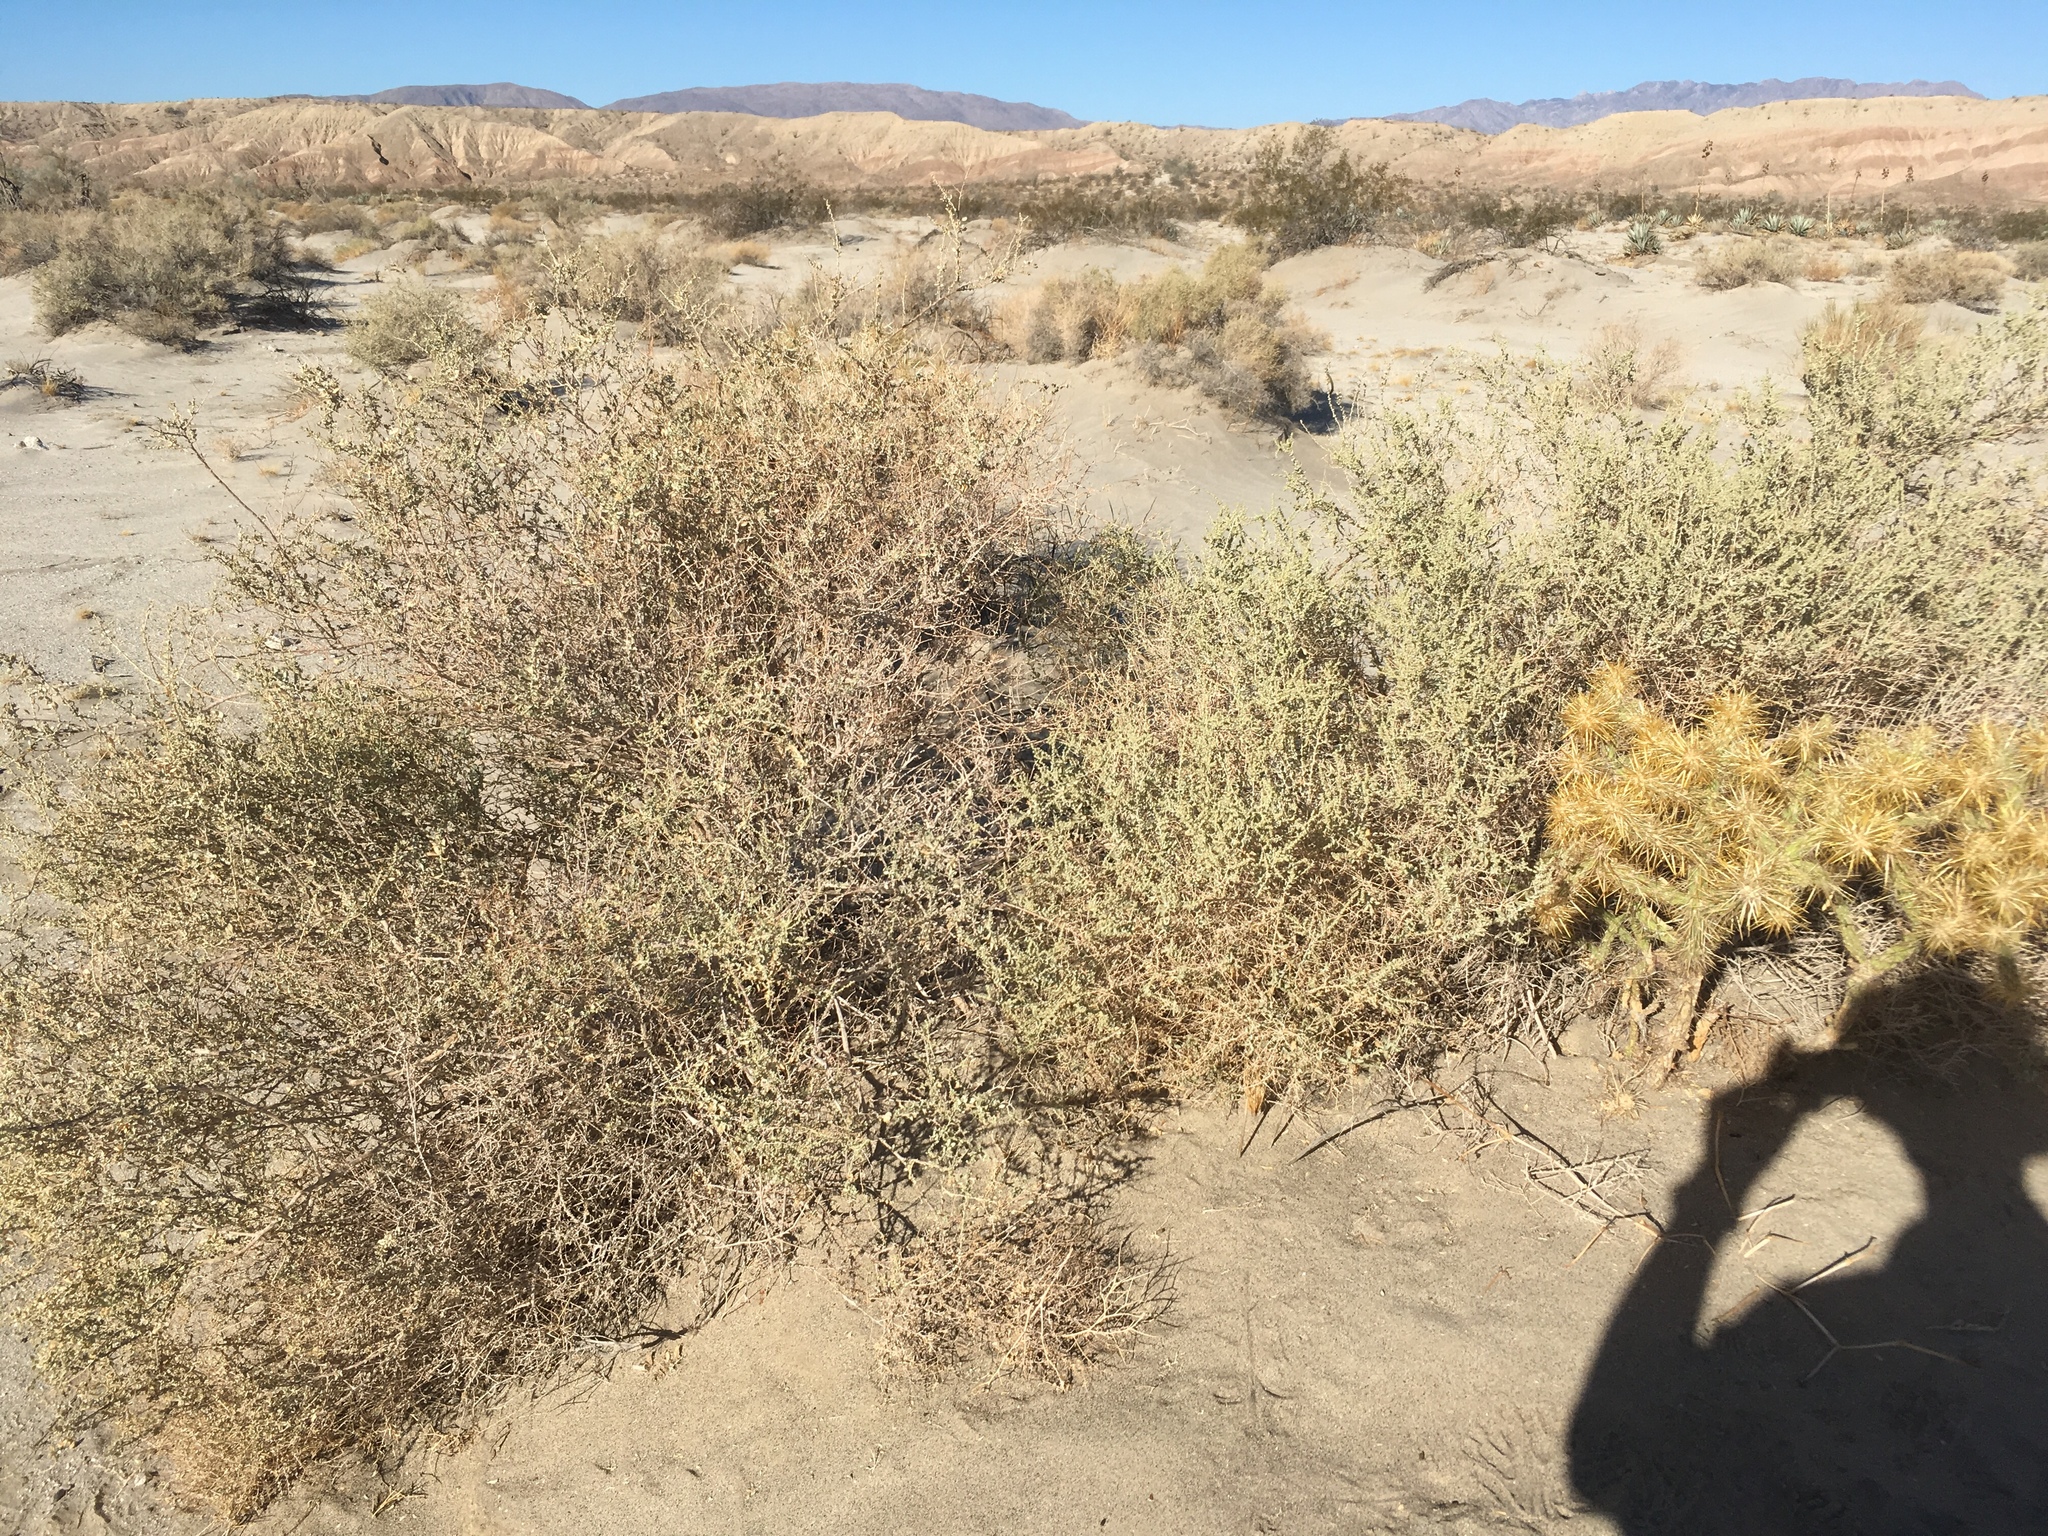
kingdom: Plantae
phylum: Tracheophyta
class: Magnoliopsida
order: Caryophyllales
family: Amaranthaceae
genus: Atriplex
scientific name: Atriplex polycarpa
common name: Desert saltbush
